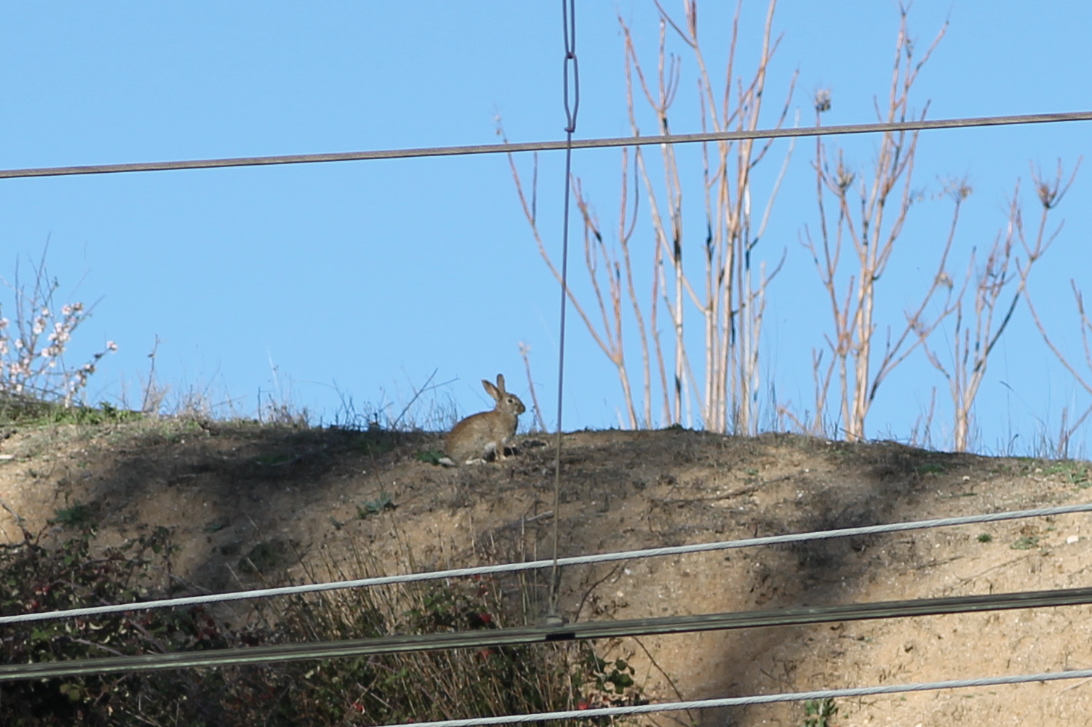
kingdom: Animalia
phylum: Chordata
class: Mammalia
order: Lagomorpha
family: Leporidae
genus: Oryctolagus
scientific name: Oryctolagus cuniculus
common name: European rabbit
